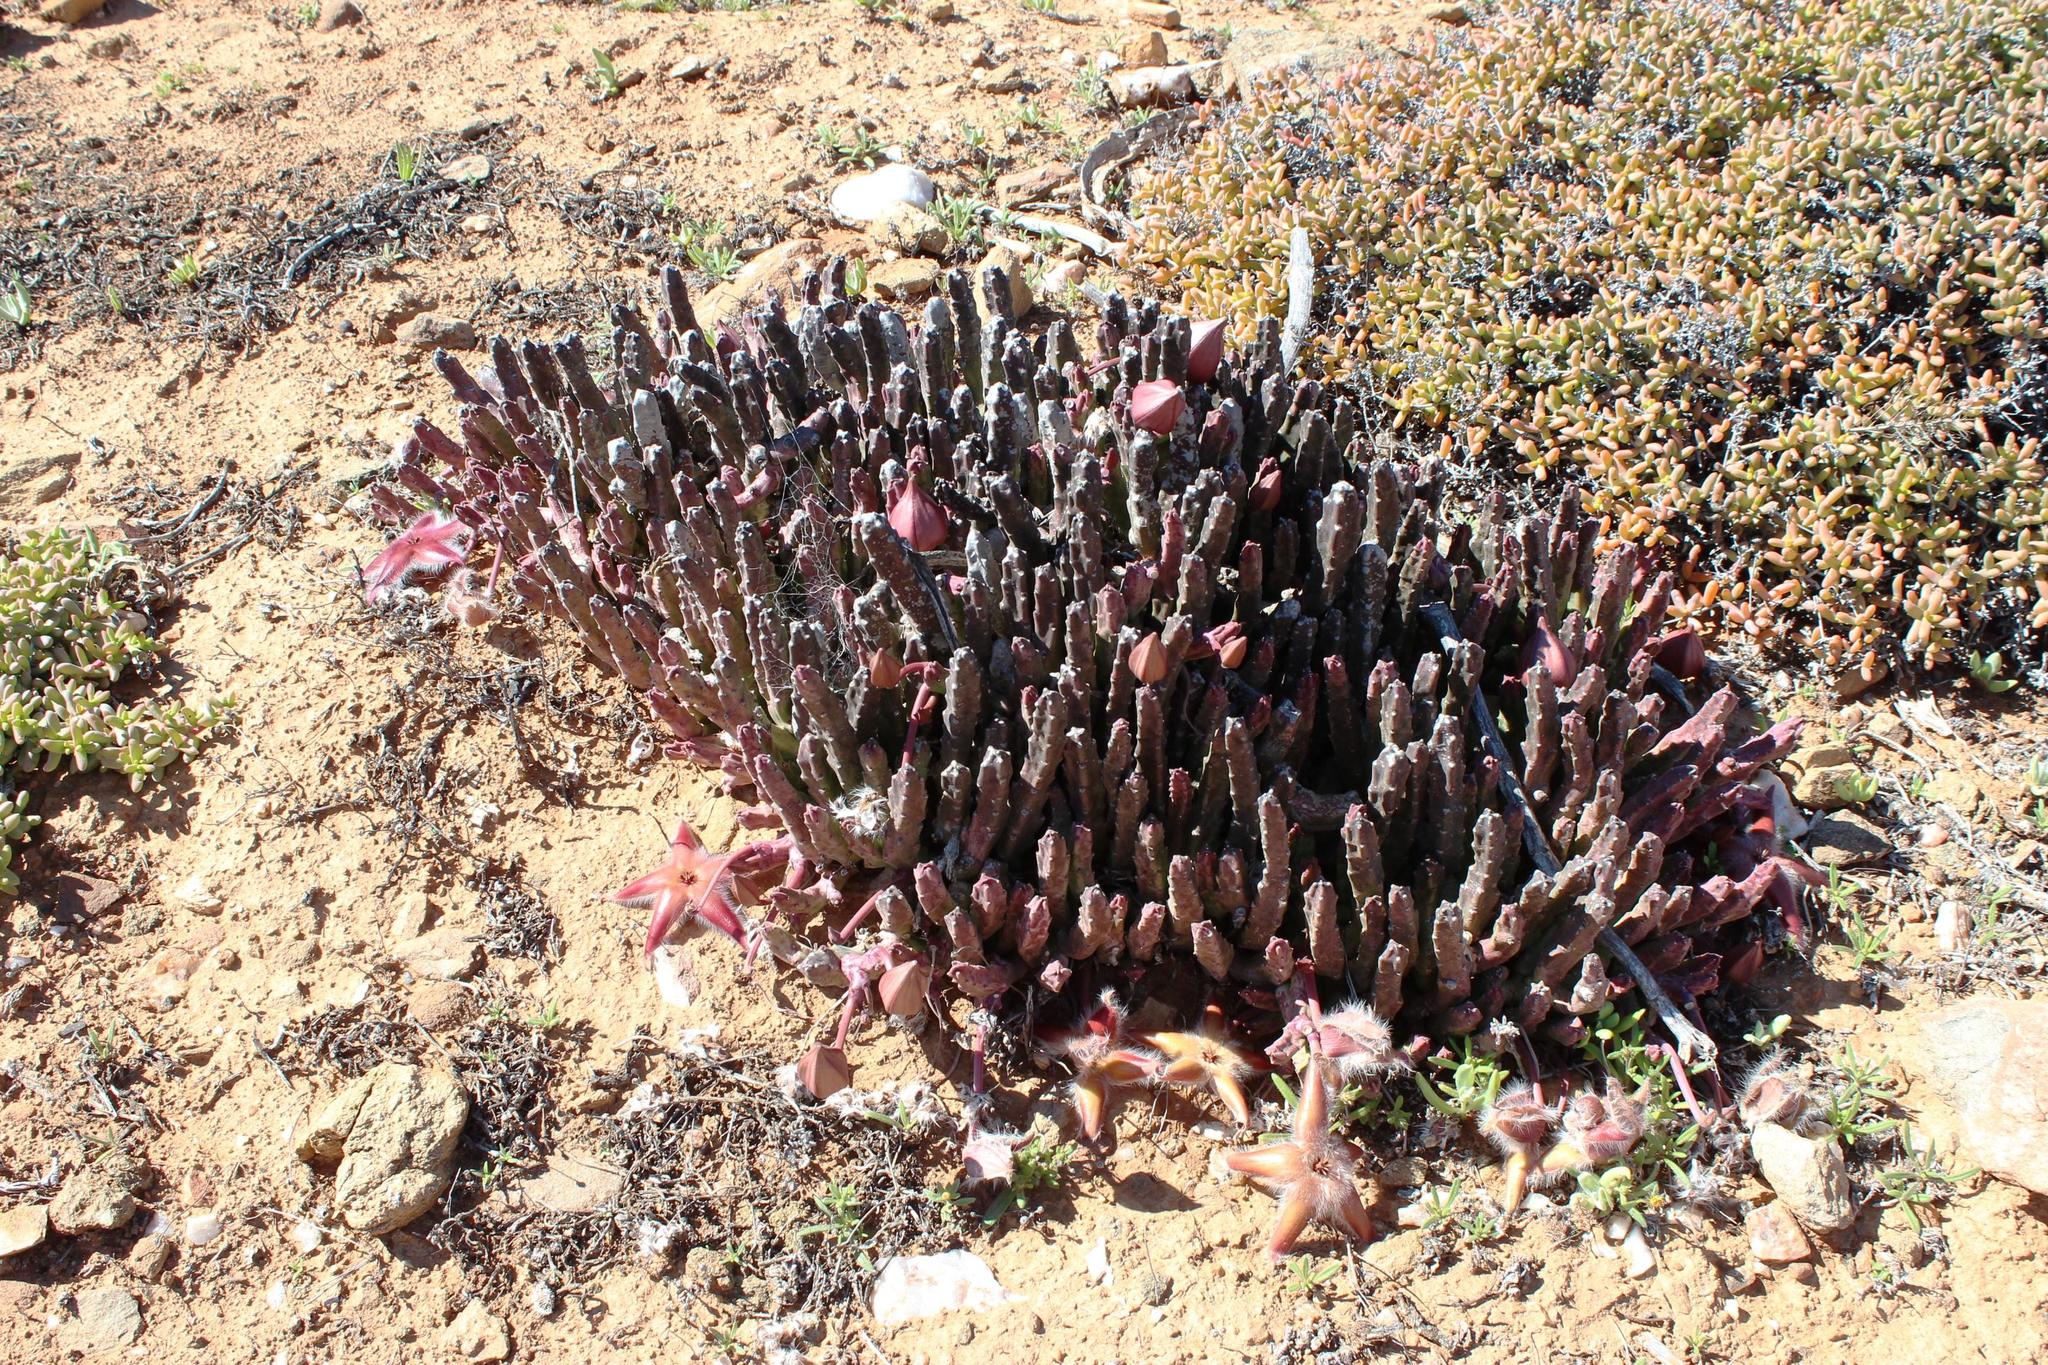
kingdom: Plantae
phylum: Tracheophyta
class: Magnoliopsida
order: Gentianales
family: Apocynaceae
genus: Ceropegia
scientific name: Ceropegia pulvinata
